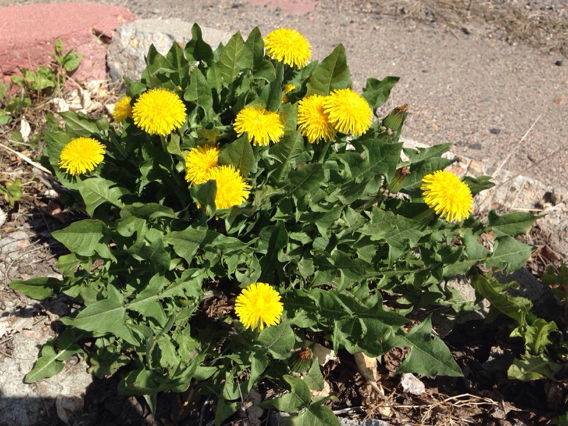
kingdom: Plantae
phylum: Tracheophyta
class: Magnoliopsida
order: Asterales
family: Asteraceae
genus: Taraxacum
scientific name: Taraxacum officinale
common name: Common dandelion
